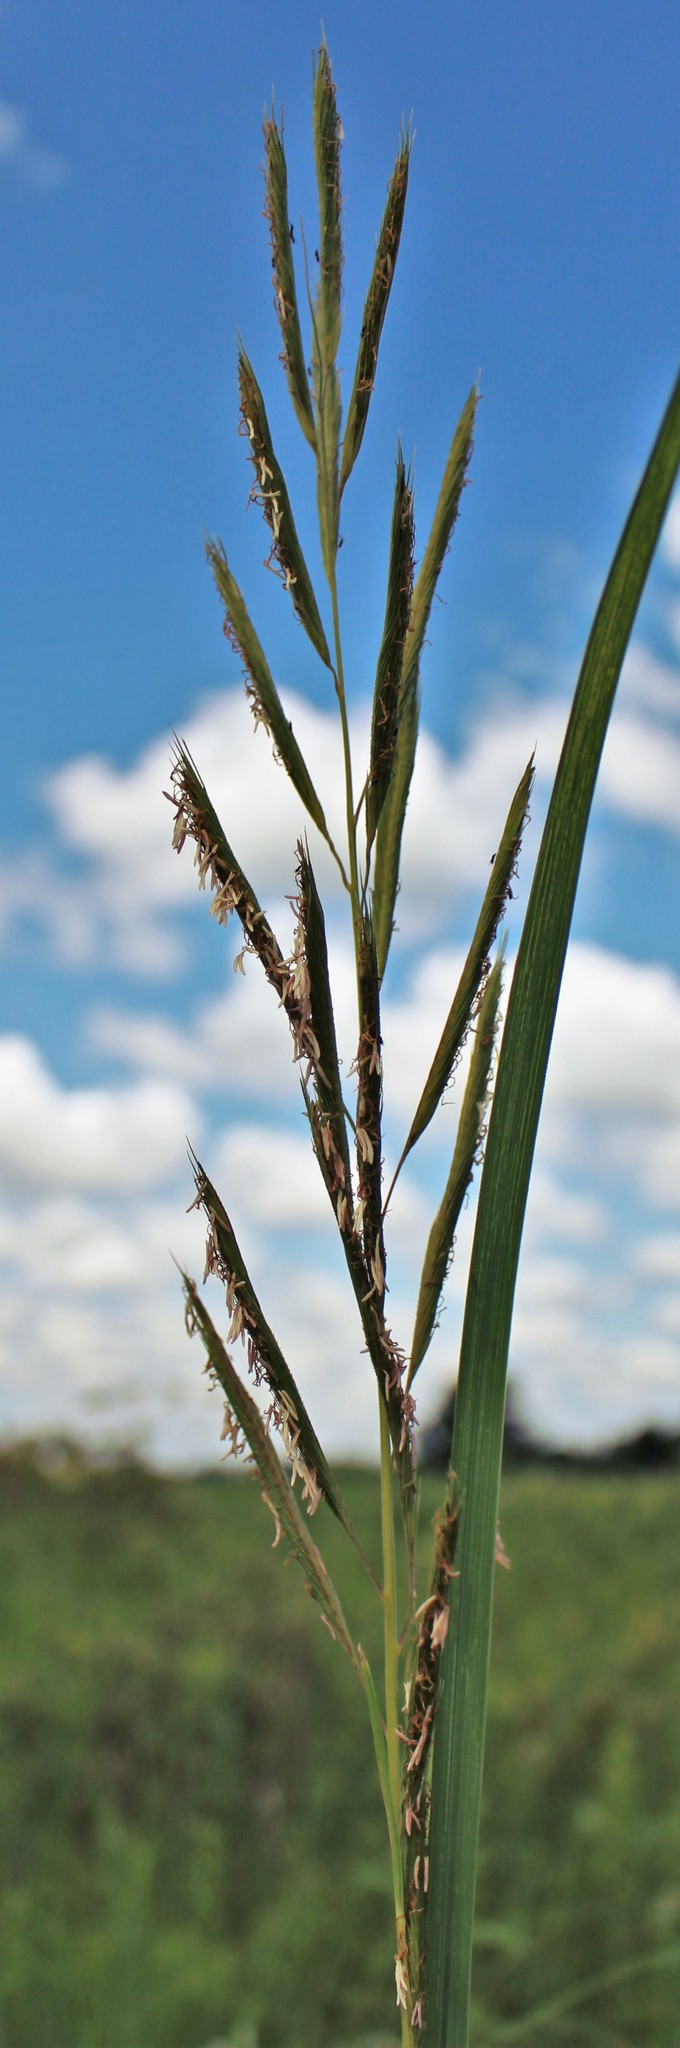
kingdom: Plantae
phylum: Tracheophyta
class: Liliopsida
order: Poales
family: Poaceae
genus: Sporobolus
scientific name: Sporobolus michauxianus
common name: Freshwater cordgrass
